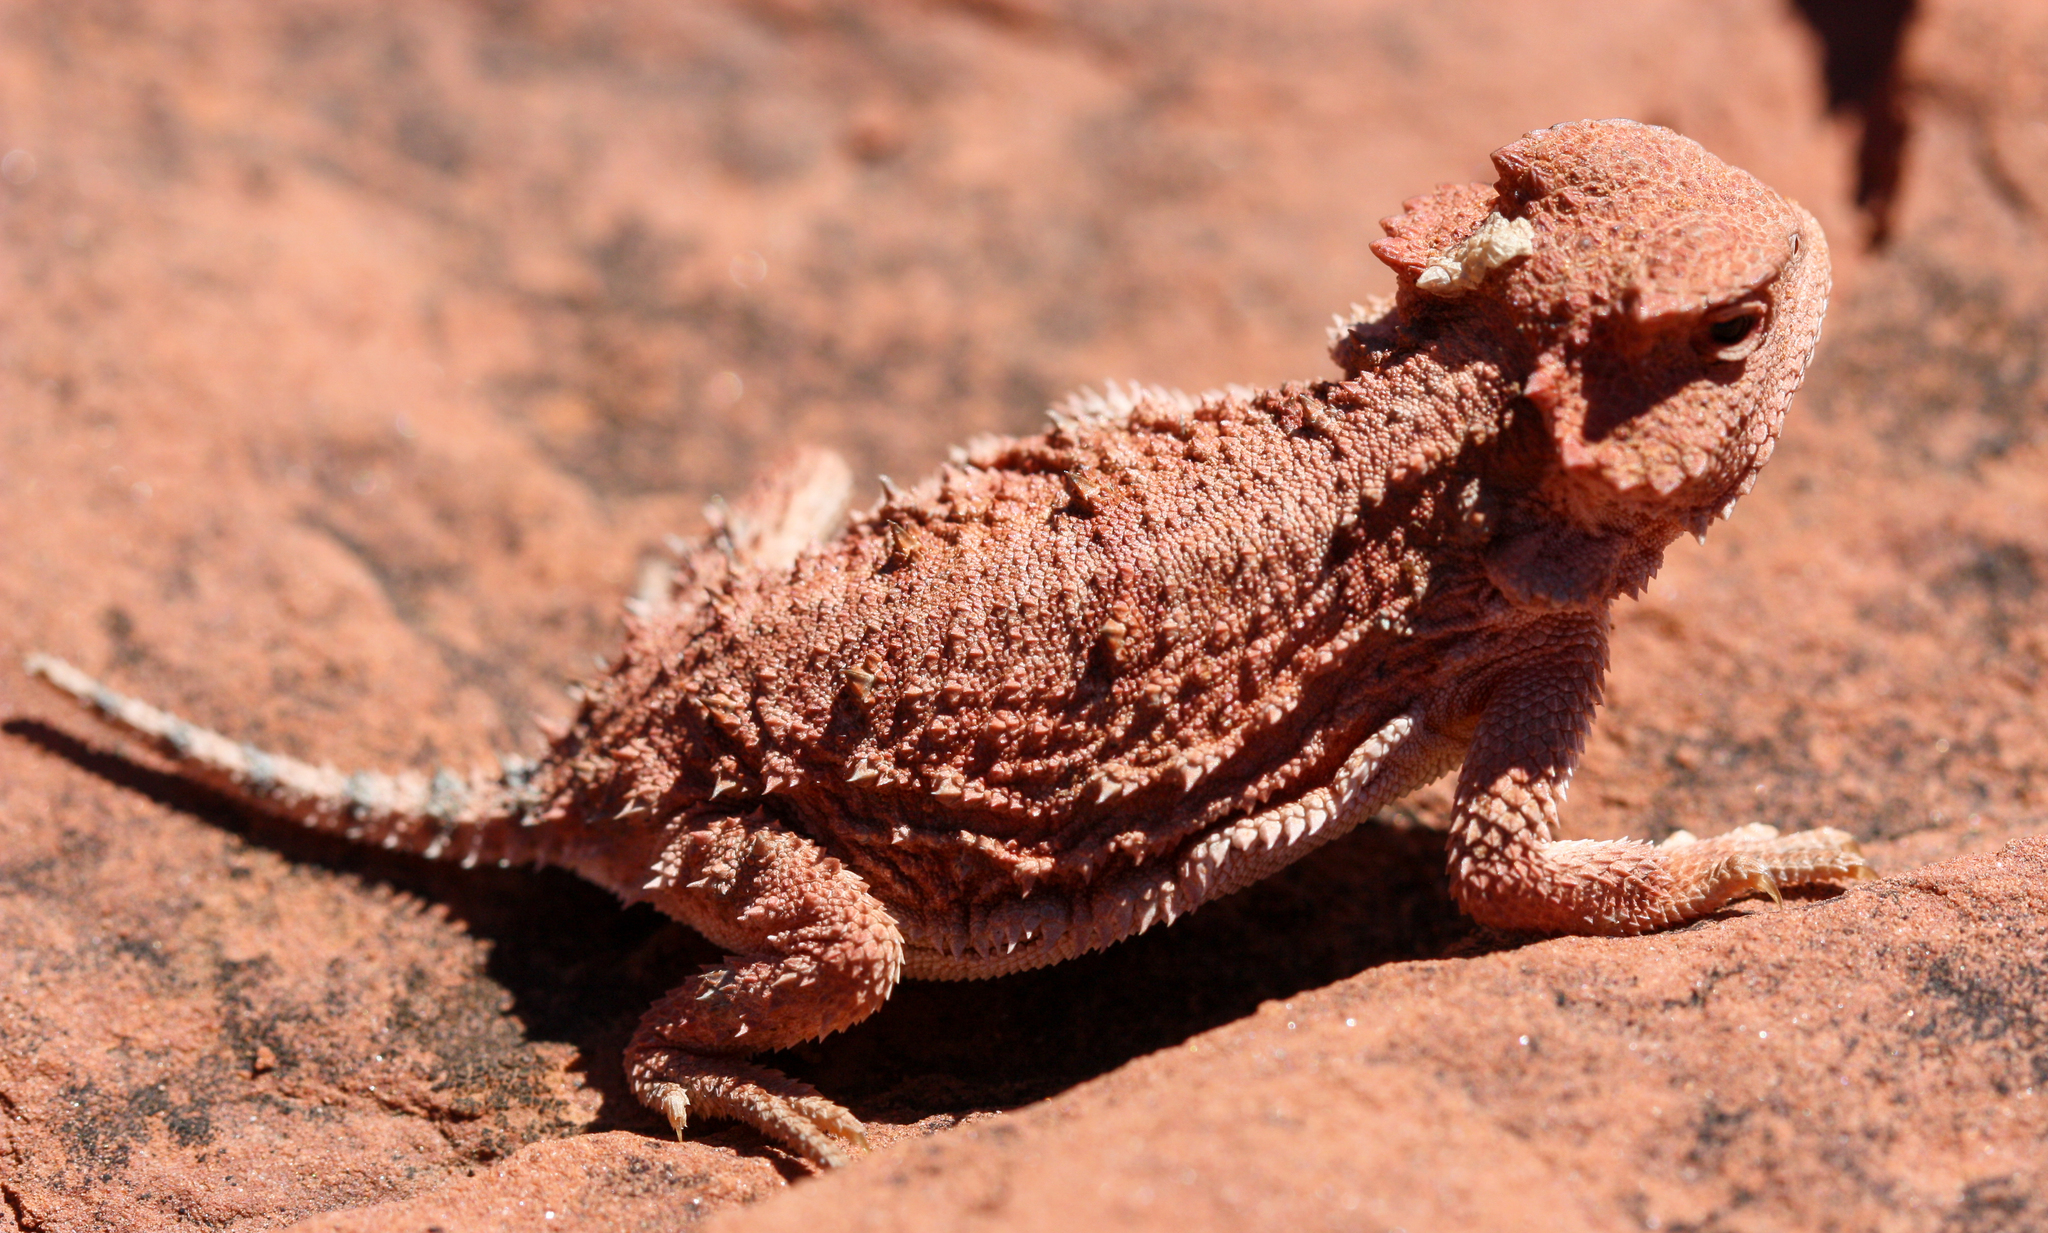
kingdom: Animalia
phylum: Chordata
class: Squamata
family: Phrynosomatidae
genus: Phrynosoma
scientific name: Phrynosoma hernandesi
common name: Greater short-horned lizard
